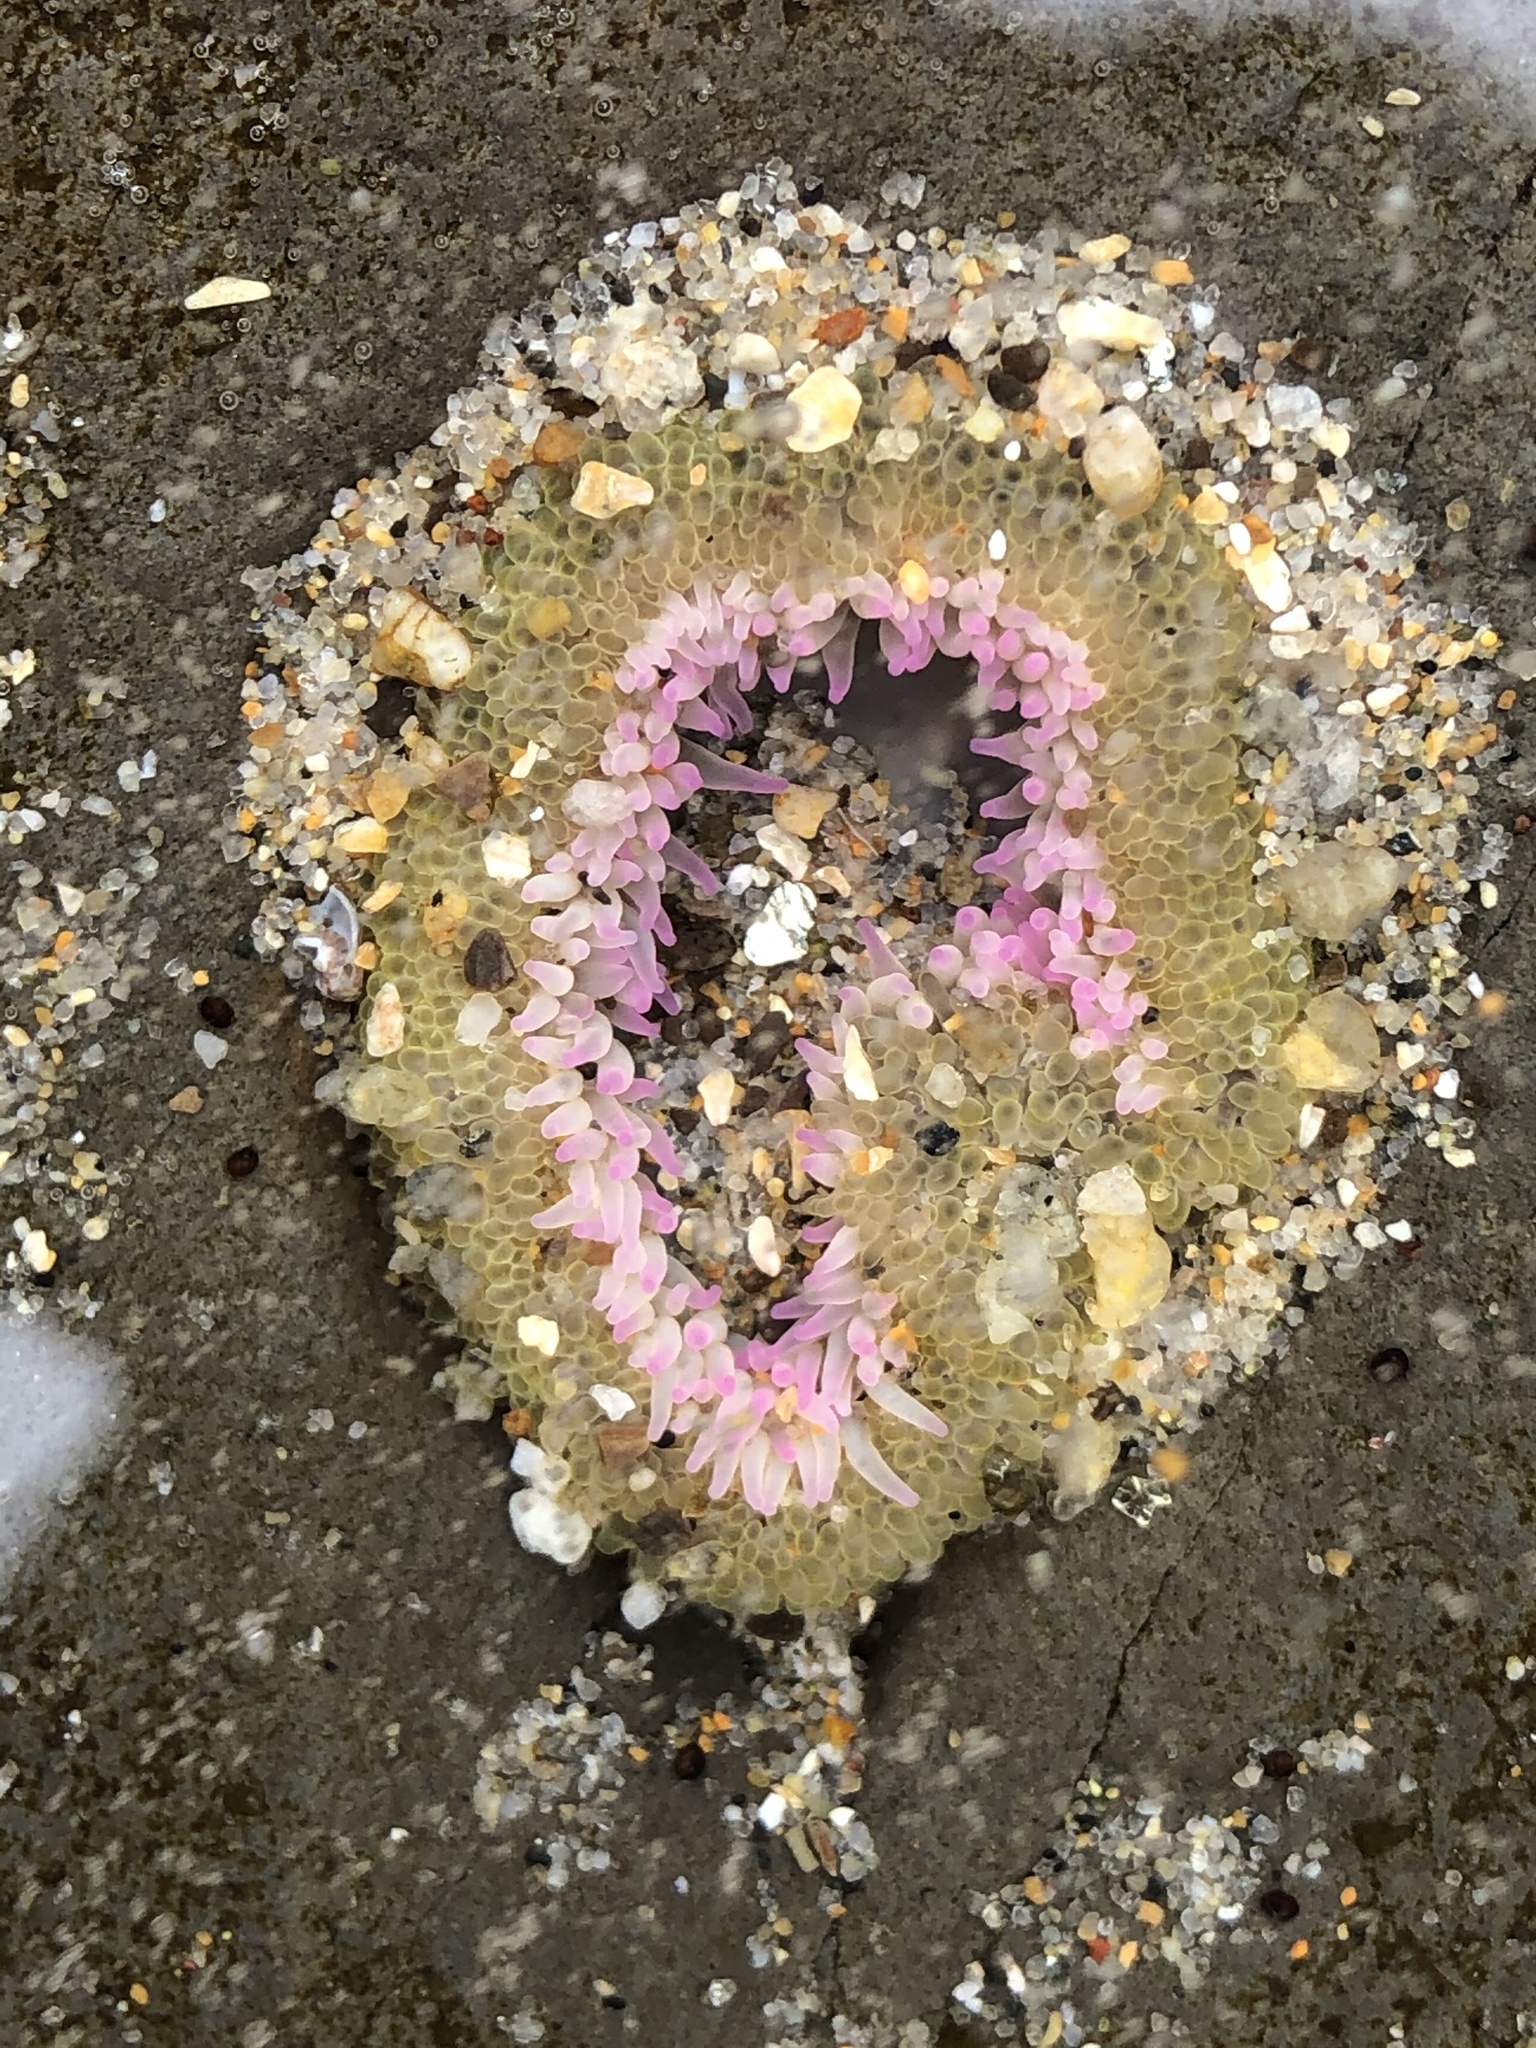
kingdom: Animalia
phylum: Cnidaria
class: Anthozoa
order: Actiniaria
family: Actiniidae
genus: Anthopleura
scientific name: Anthopleura elegantissima
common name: Clonal anemone
